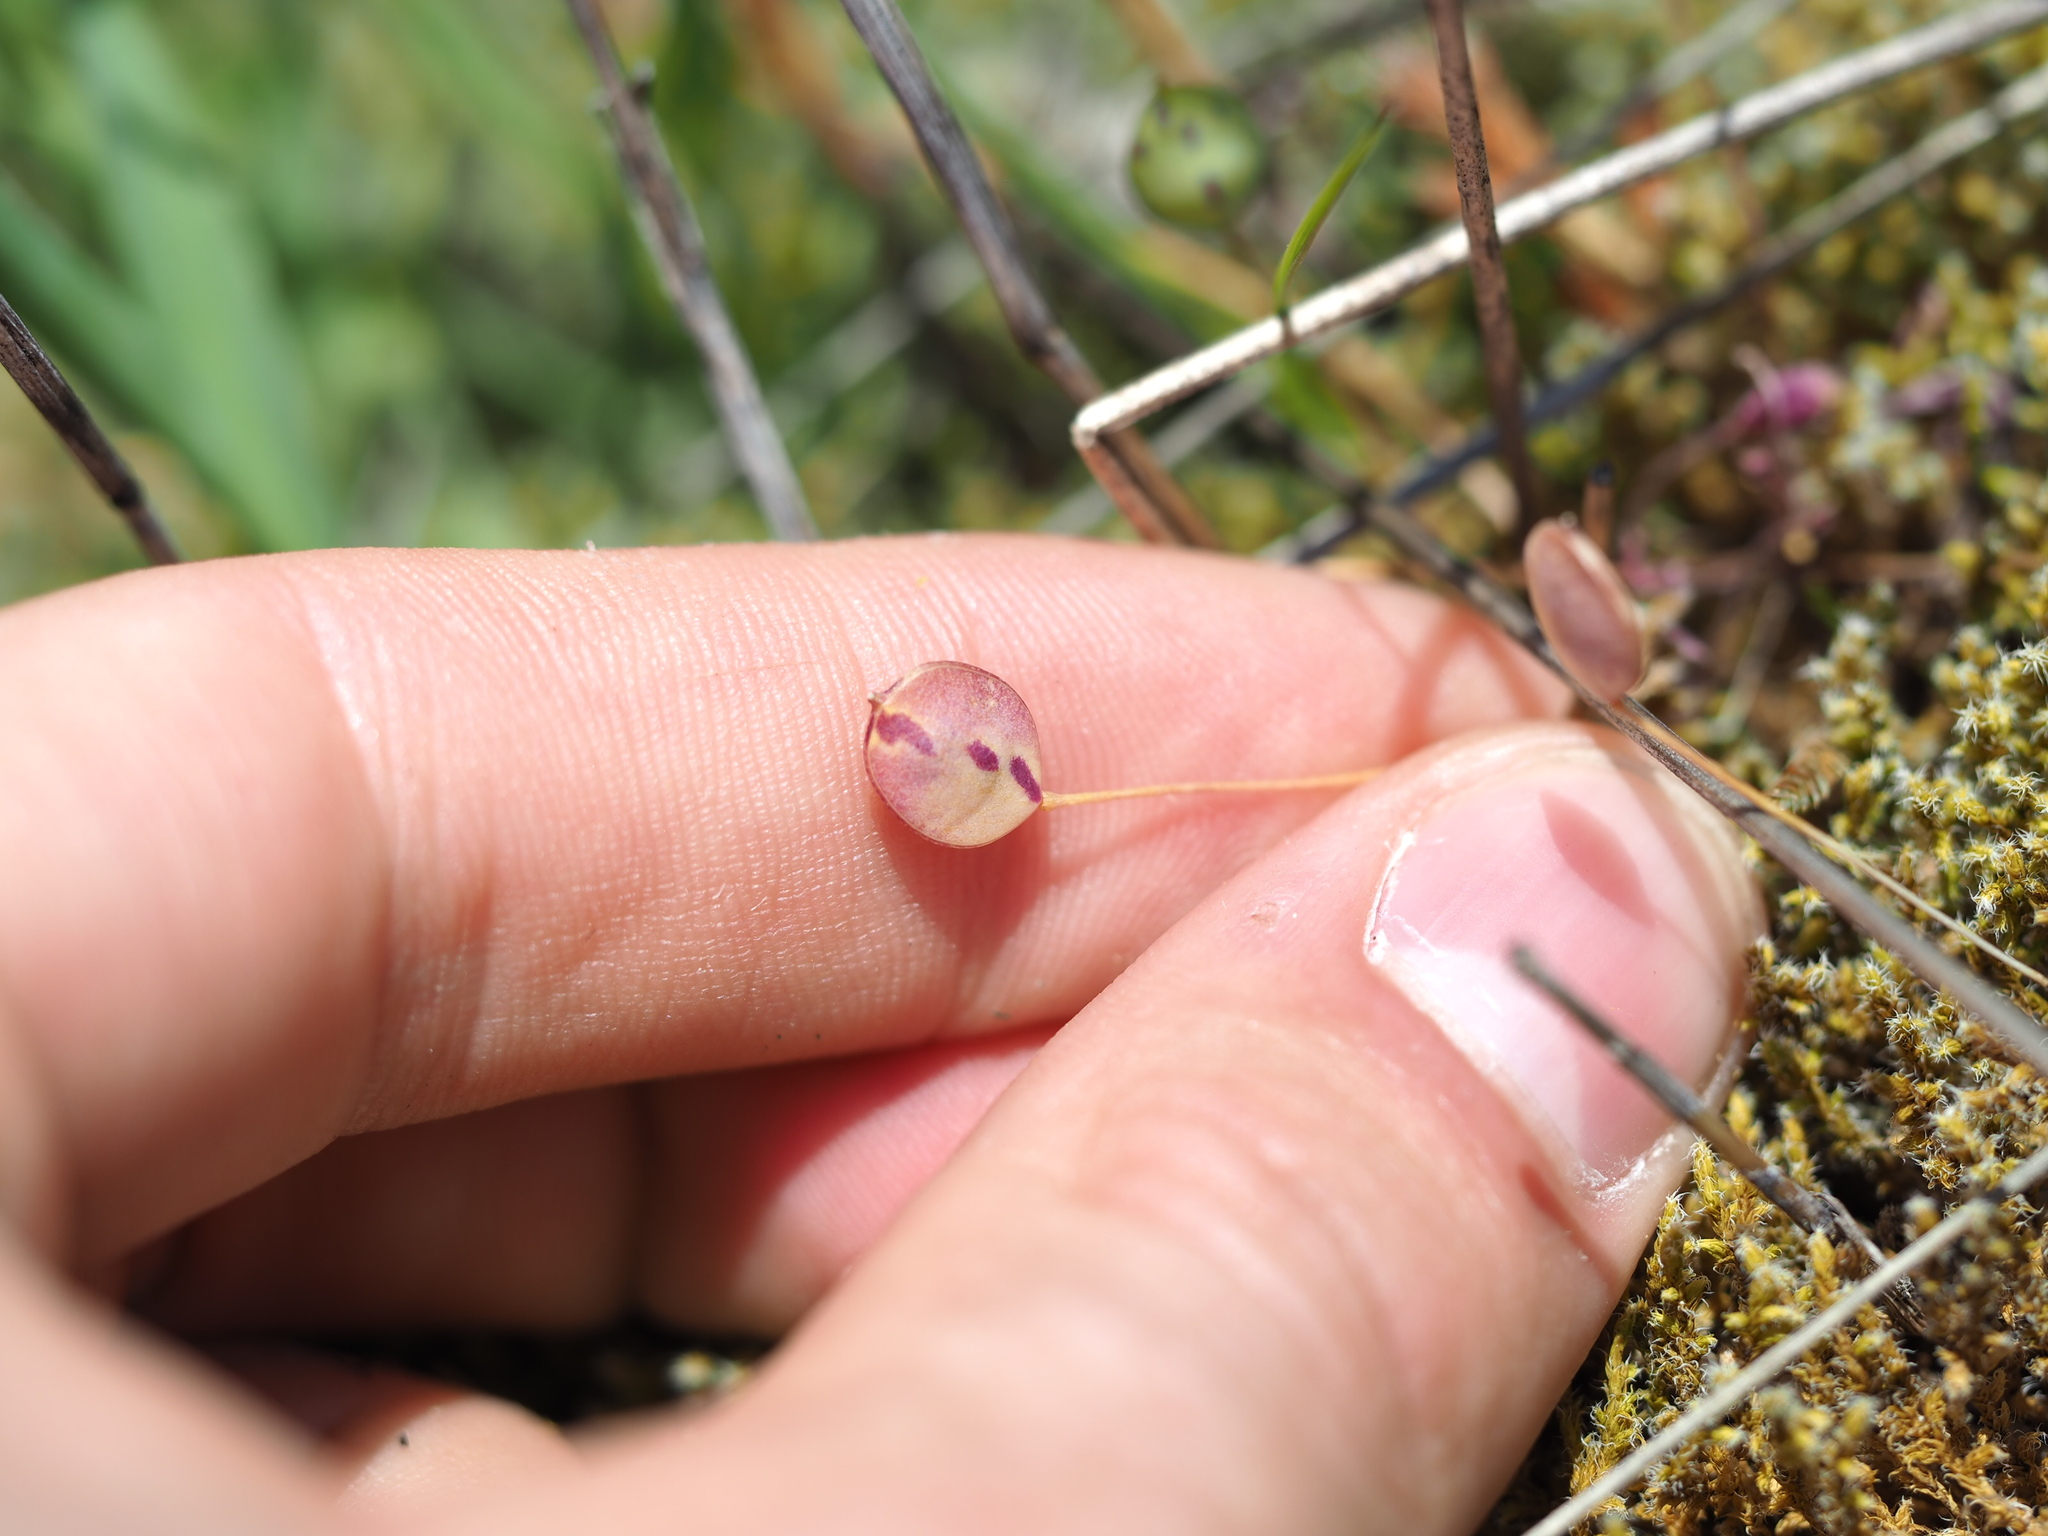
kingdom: Plantae
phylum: Tracheophyta
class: Magnoliopsida
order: Brassicales
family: Brassicaceae
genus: Idahoa
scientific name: Idahoa scapigera
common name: Scalepod
